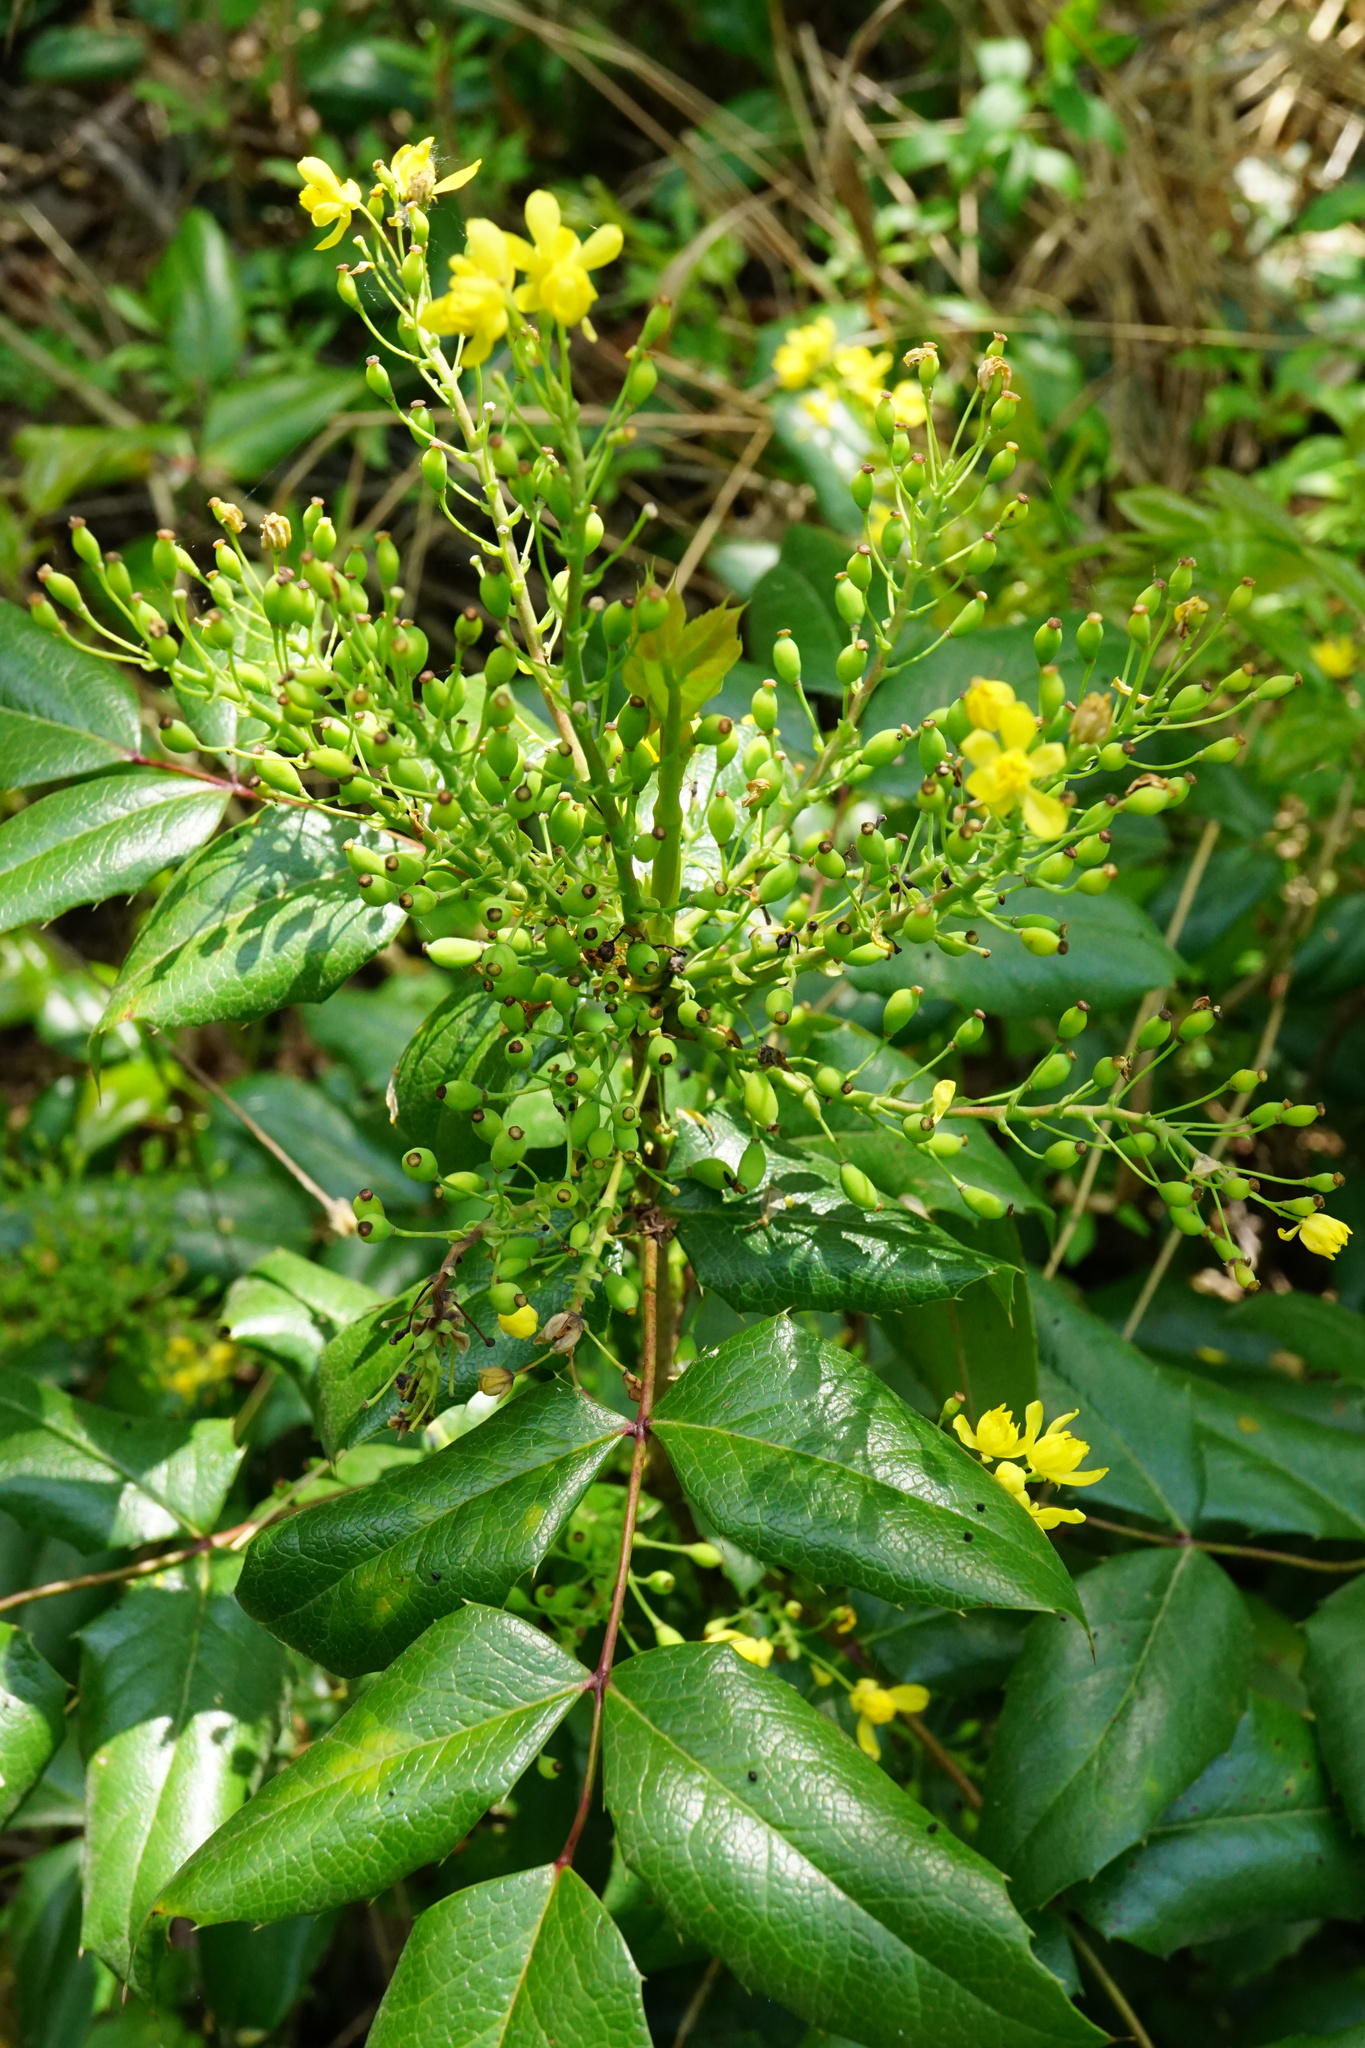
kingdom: Plantae
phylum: Tracheophyta
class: Magnoliopsida
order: Ranunculales
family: Berberidaceae
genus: Mahonia
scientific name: Mahonia aquifolium
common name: Oregon-grape
